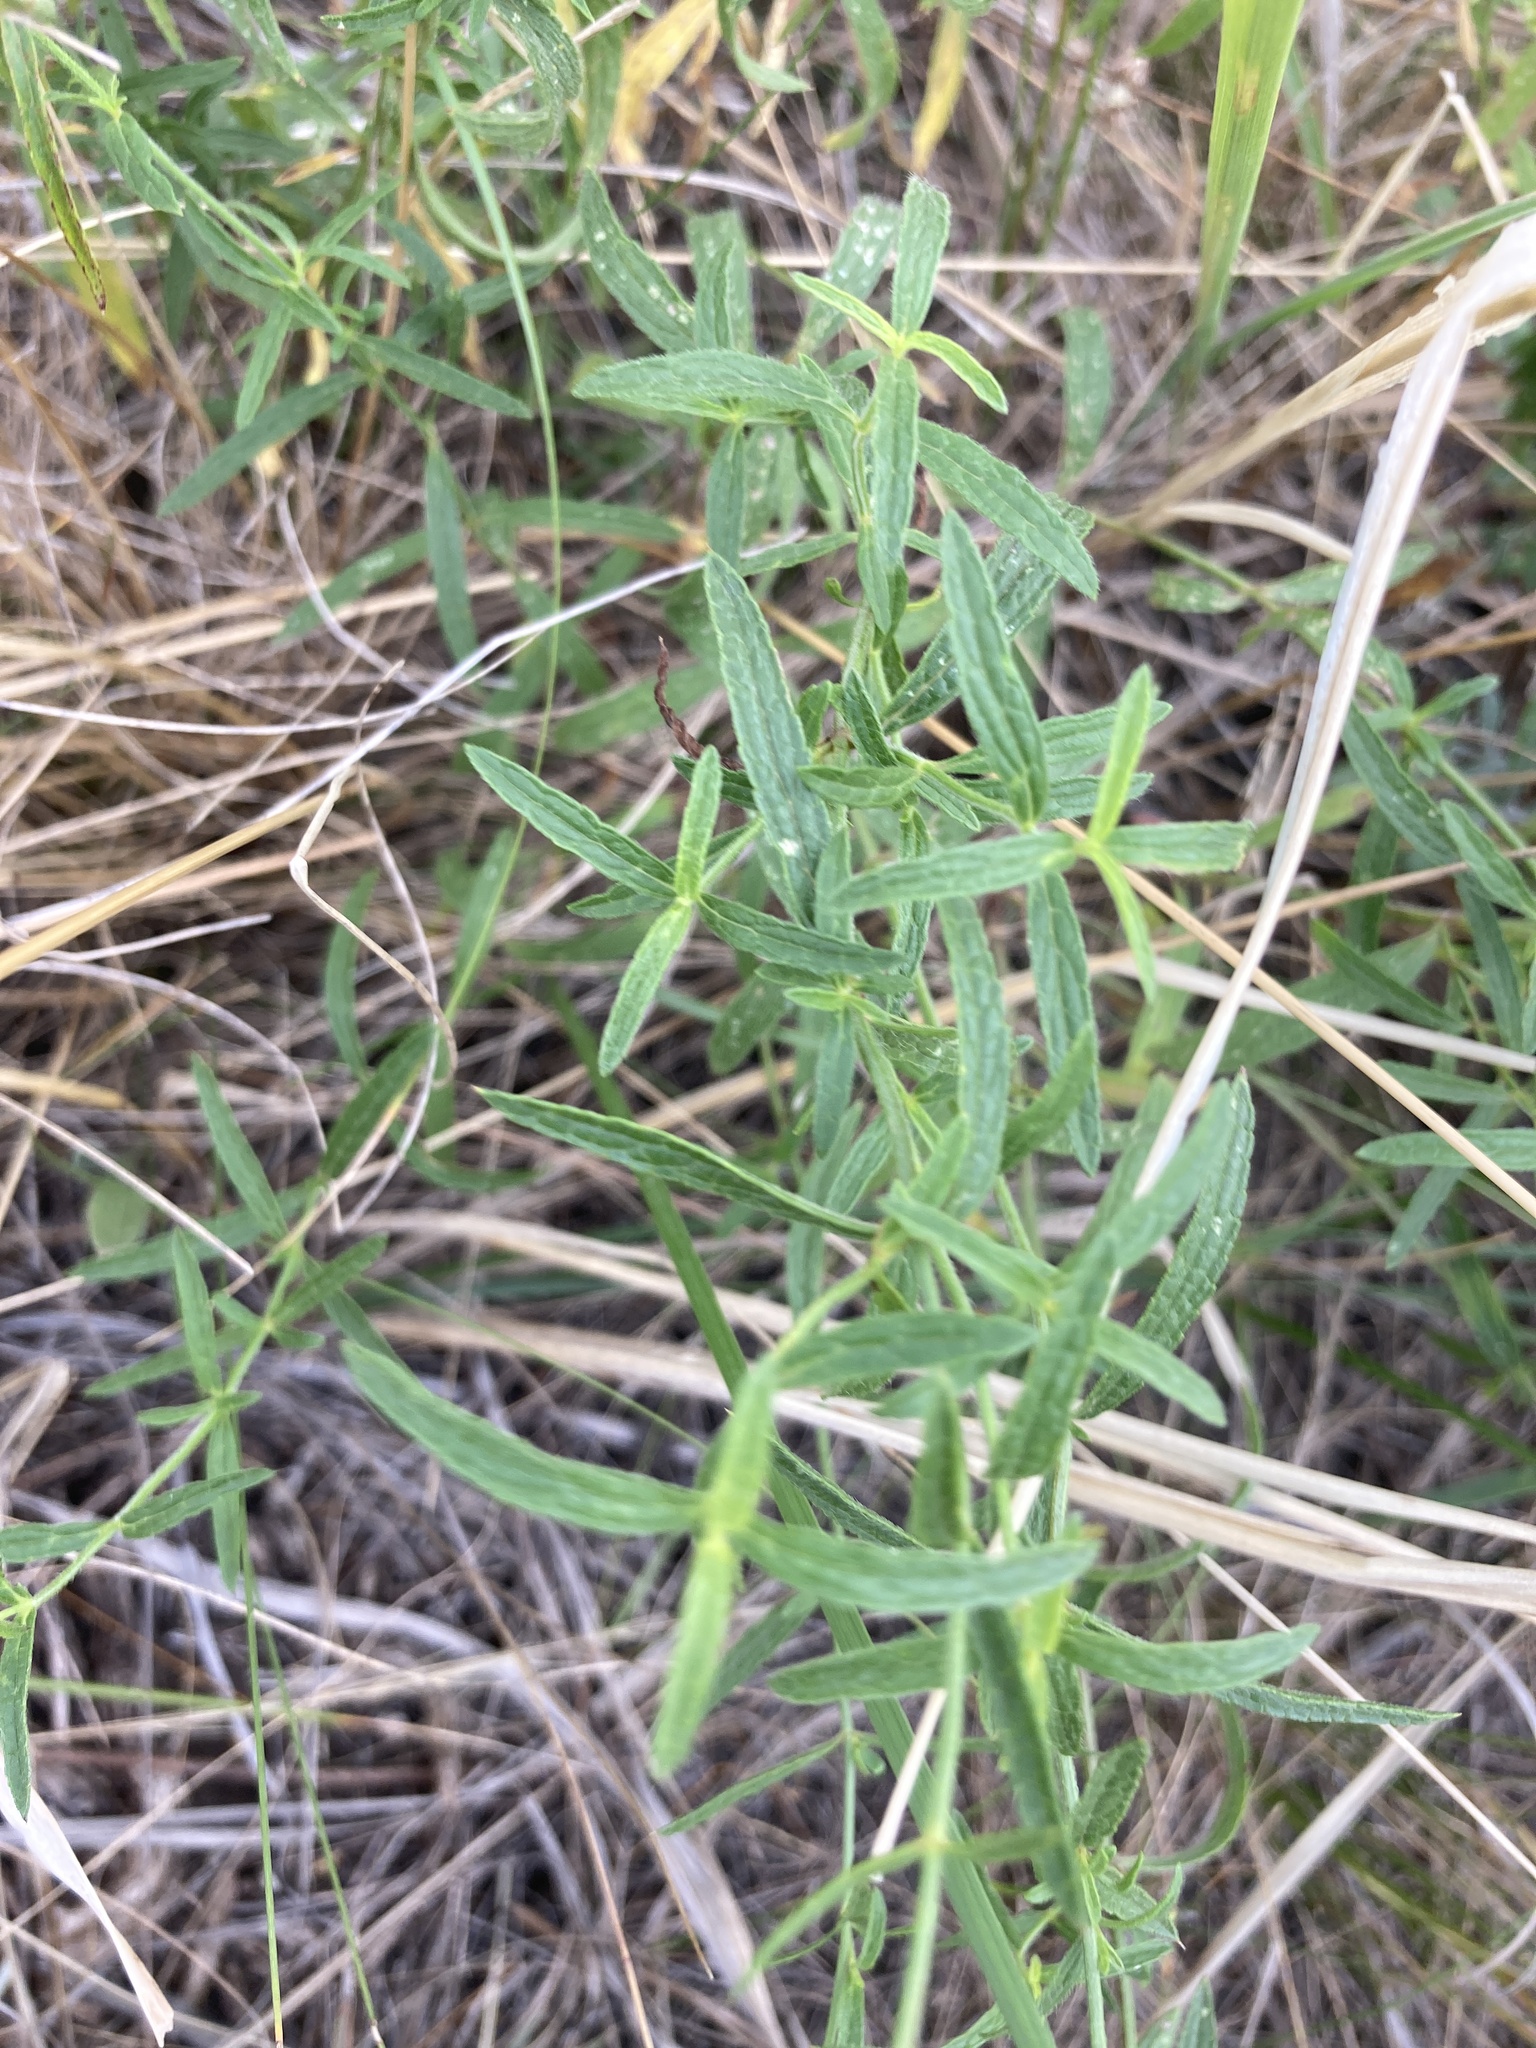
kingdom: Plantae
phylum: Tracheophyta
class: Magnoliopsida
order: Lamiales
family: Lamiaceae
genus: Stachys
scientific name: Stachys recta
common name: Perennial yellow-woundwort
